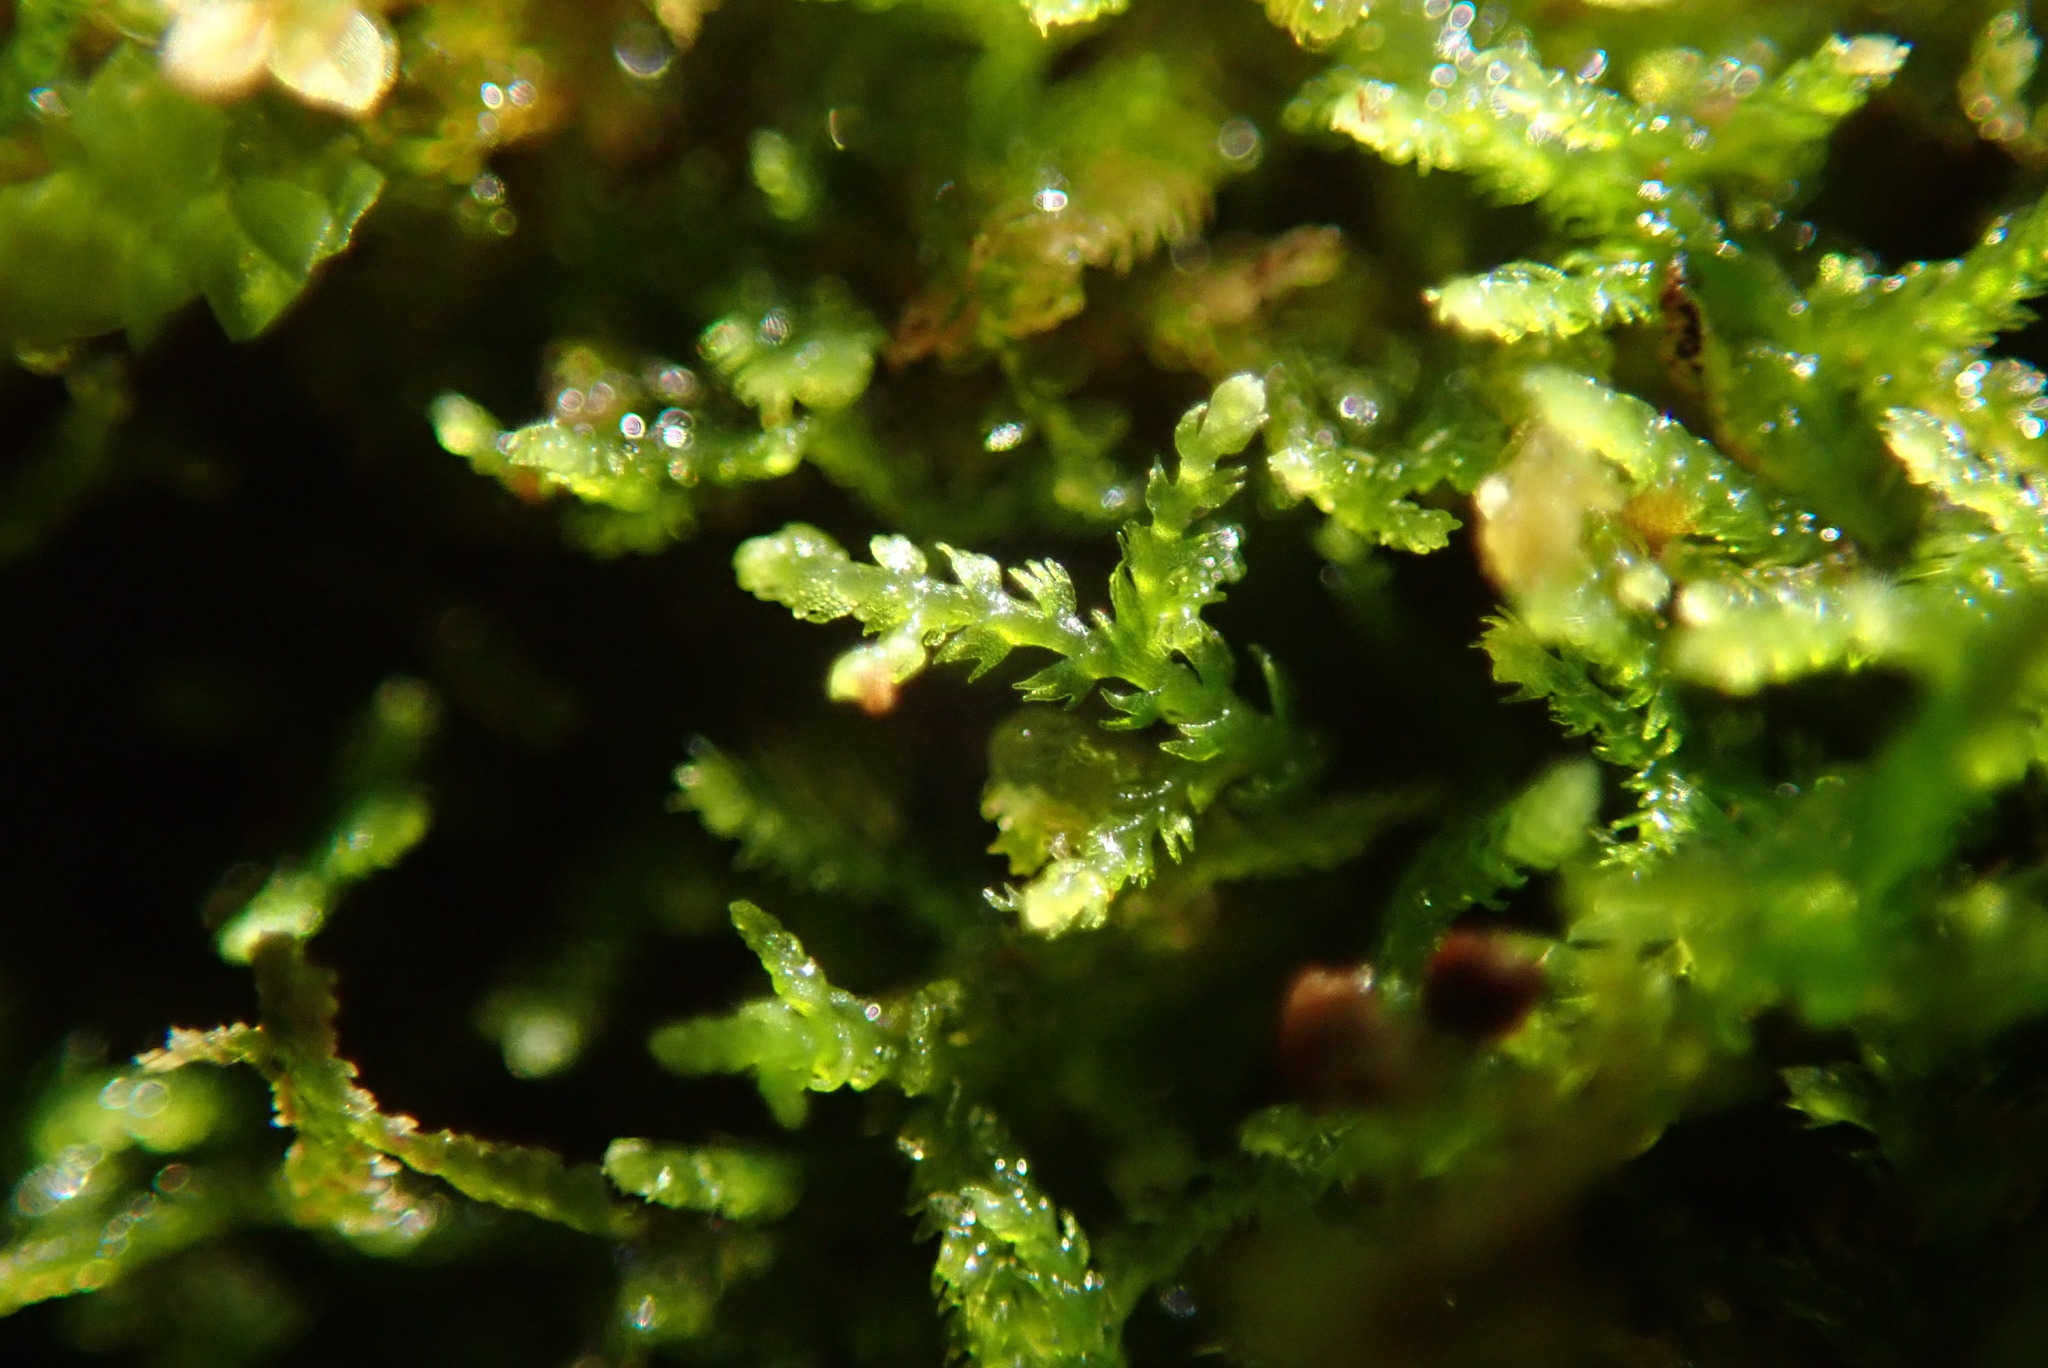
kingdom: Plantae
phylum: Marchantiophyta
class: Jungermanniopsida
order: Jungermanniales
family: Lepidoziaceae
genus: Lepidozia
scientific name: Lepidozia reptans
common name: Creeping fingerwort
